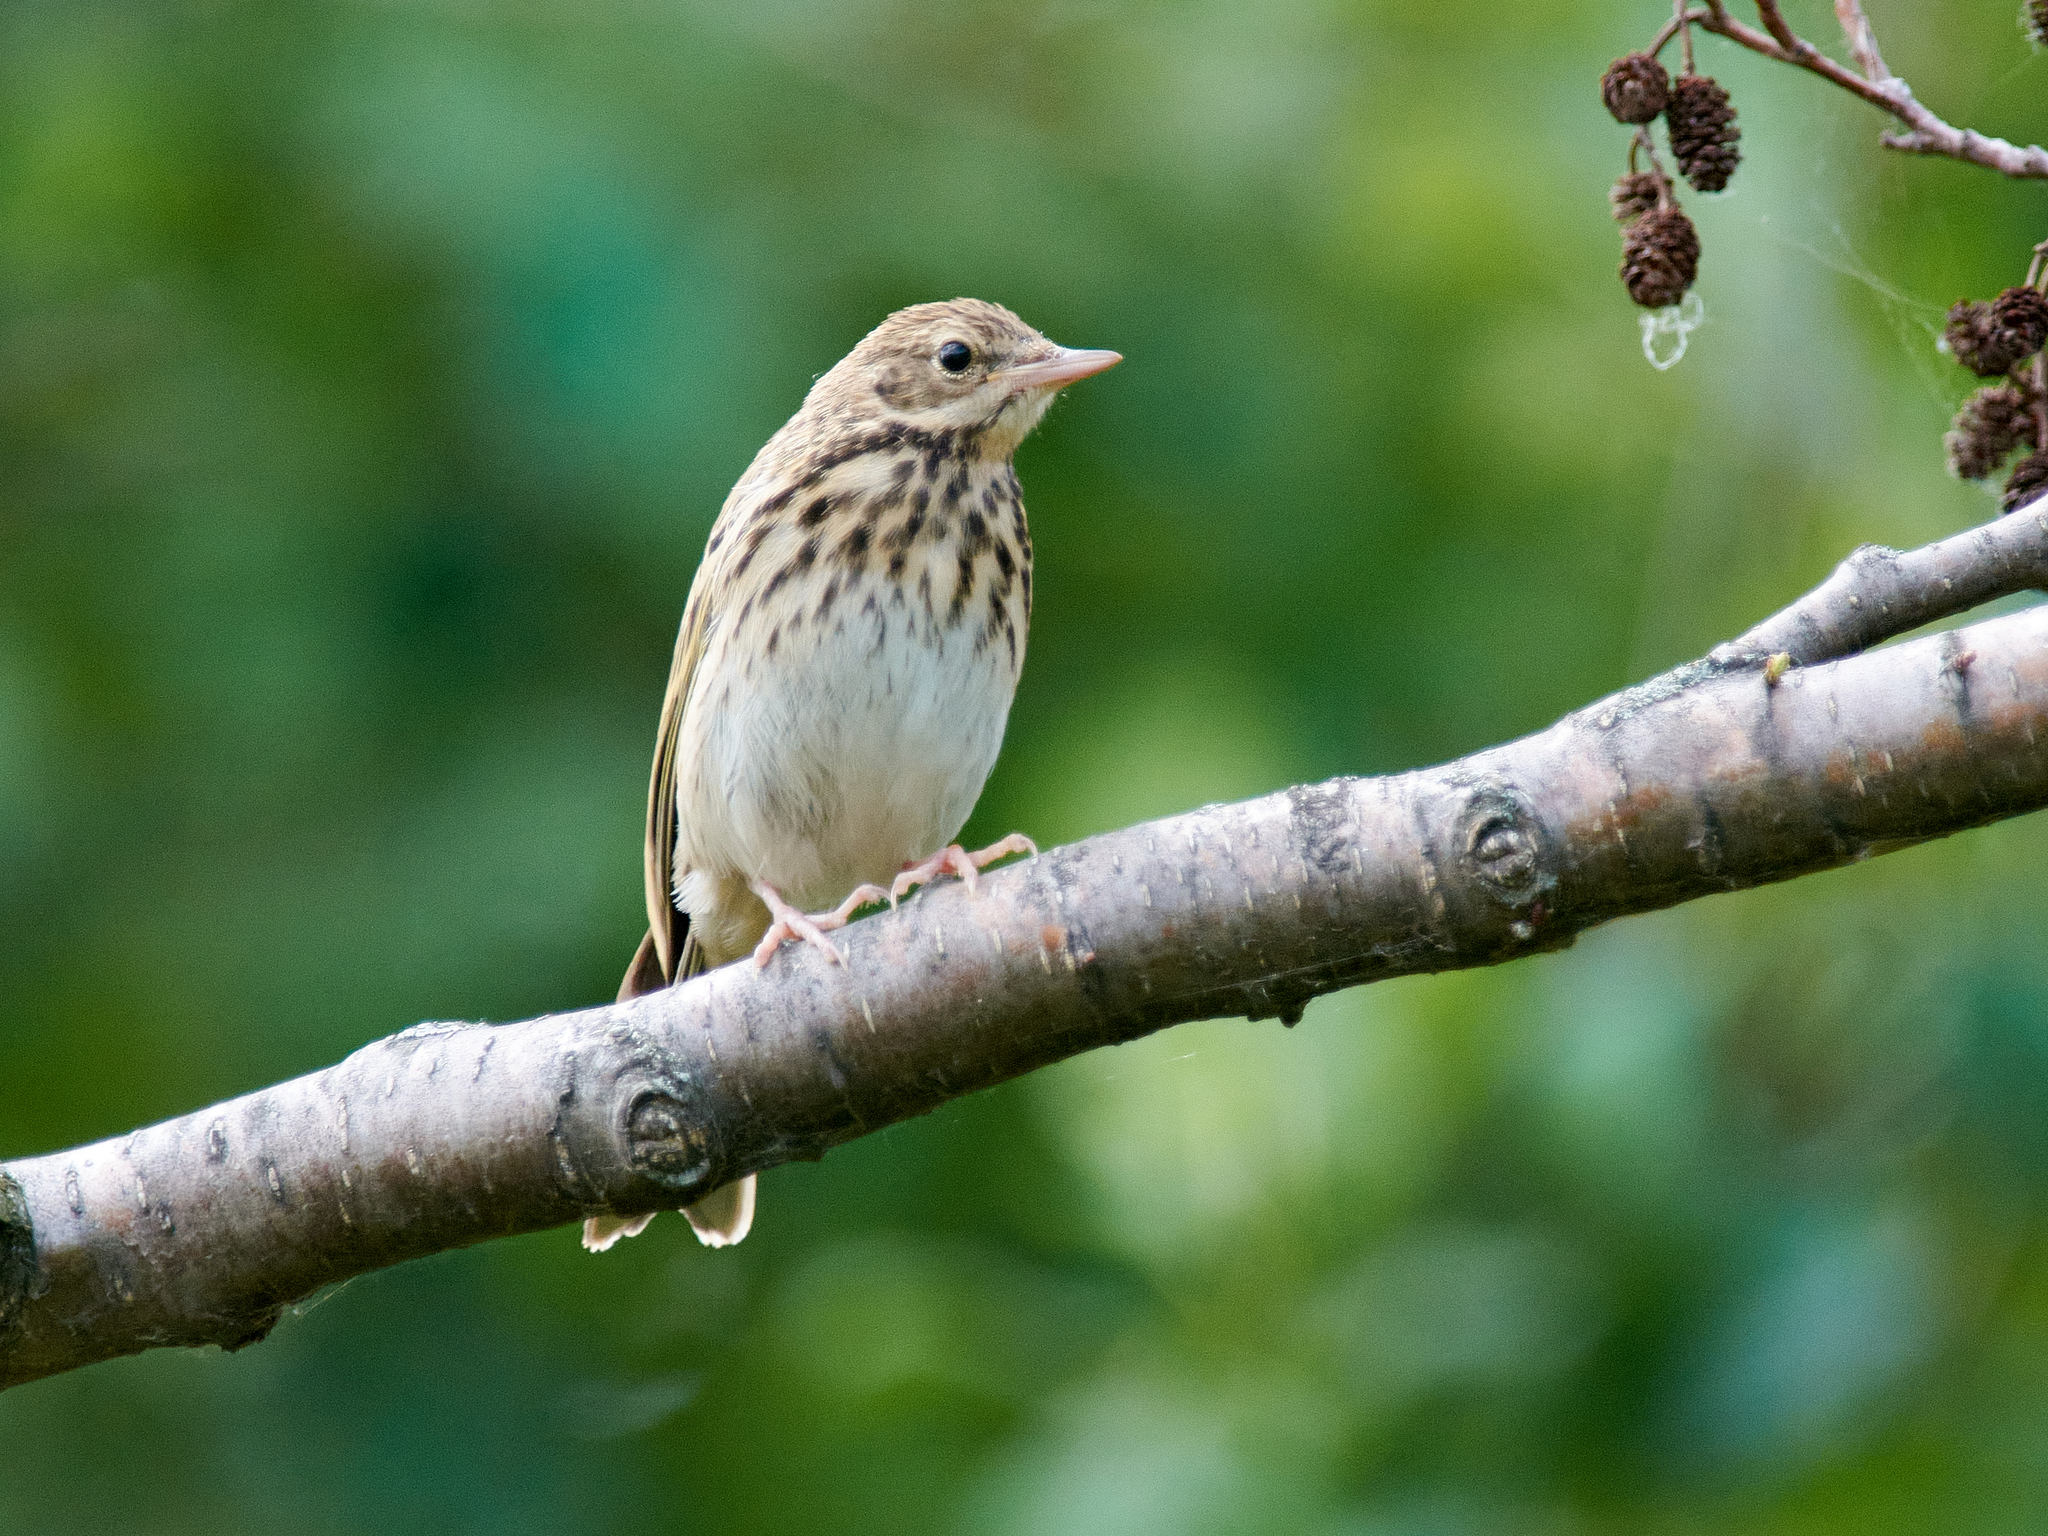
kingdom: Animalia
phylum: Chordata
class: Aves
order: Passeriformes
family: Motacillidae
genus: Anthus
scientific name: Anthus trivialis
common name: Tree pipit
